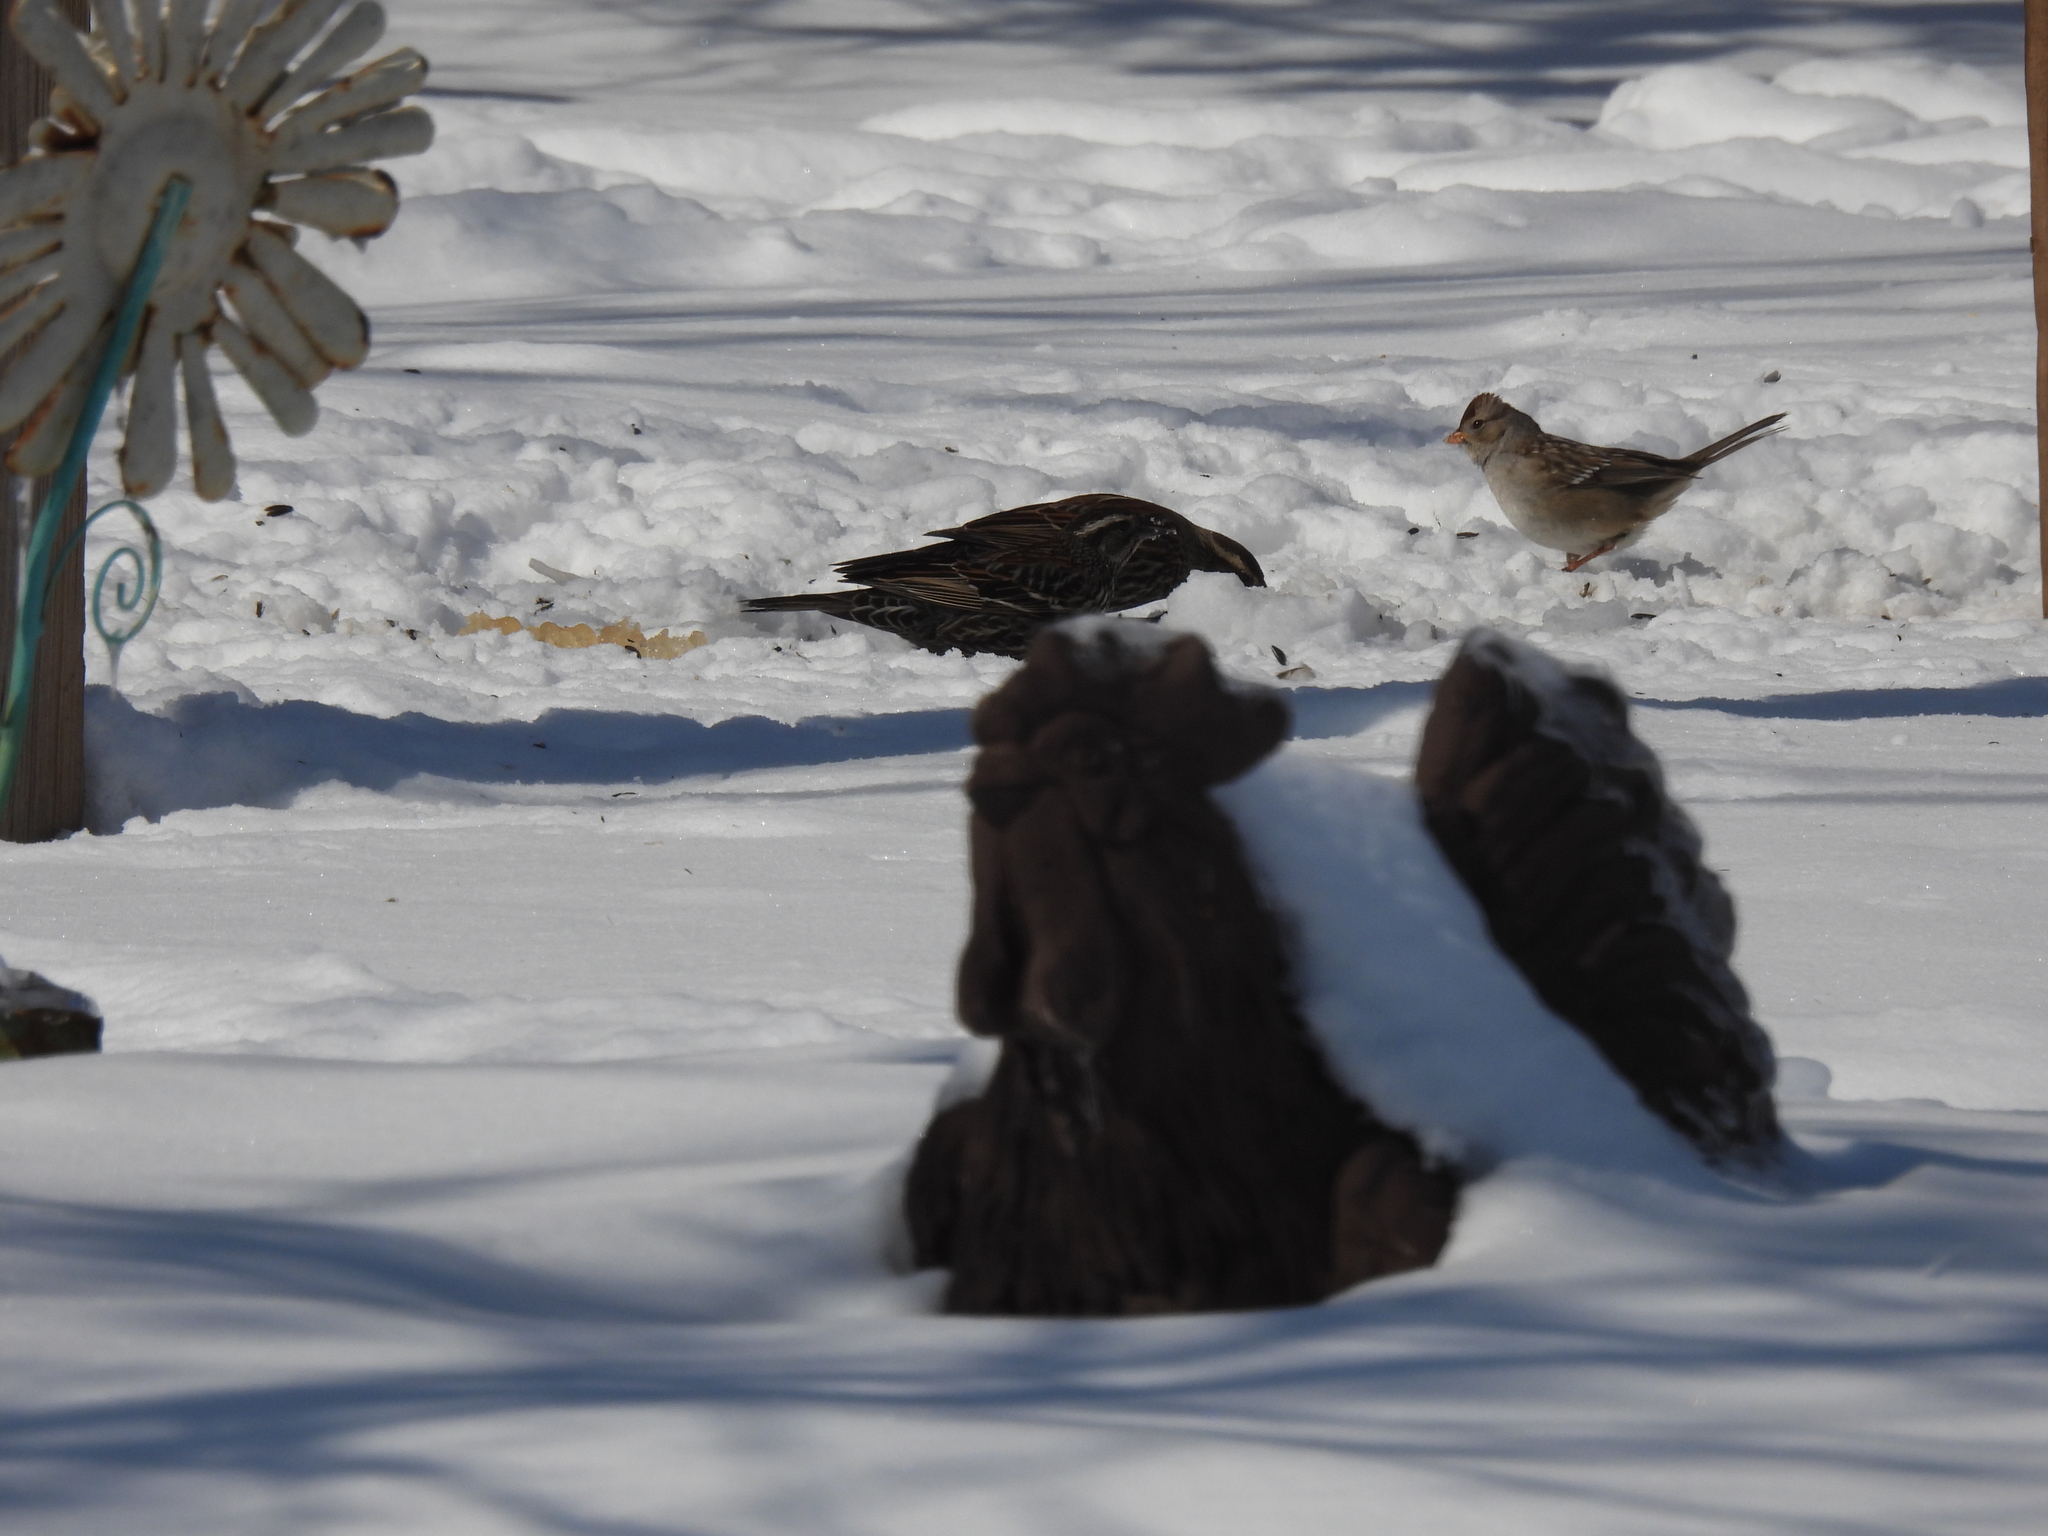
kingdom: Animalia
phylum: Chordata
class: Aves
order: Passeriformes
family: Passerellidae
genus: Zonotrichia
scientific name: Zonotrichia leucophrys
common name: White-crowned sparrow
